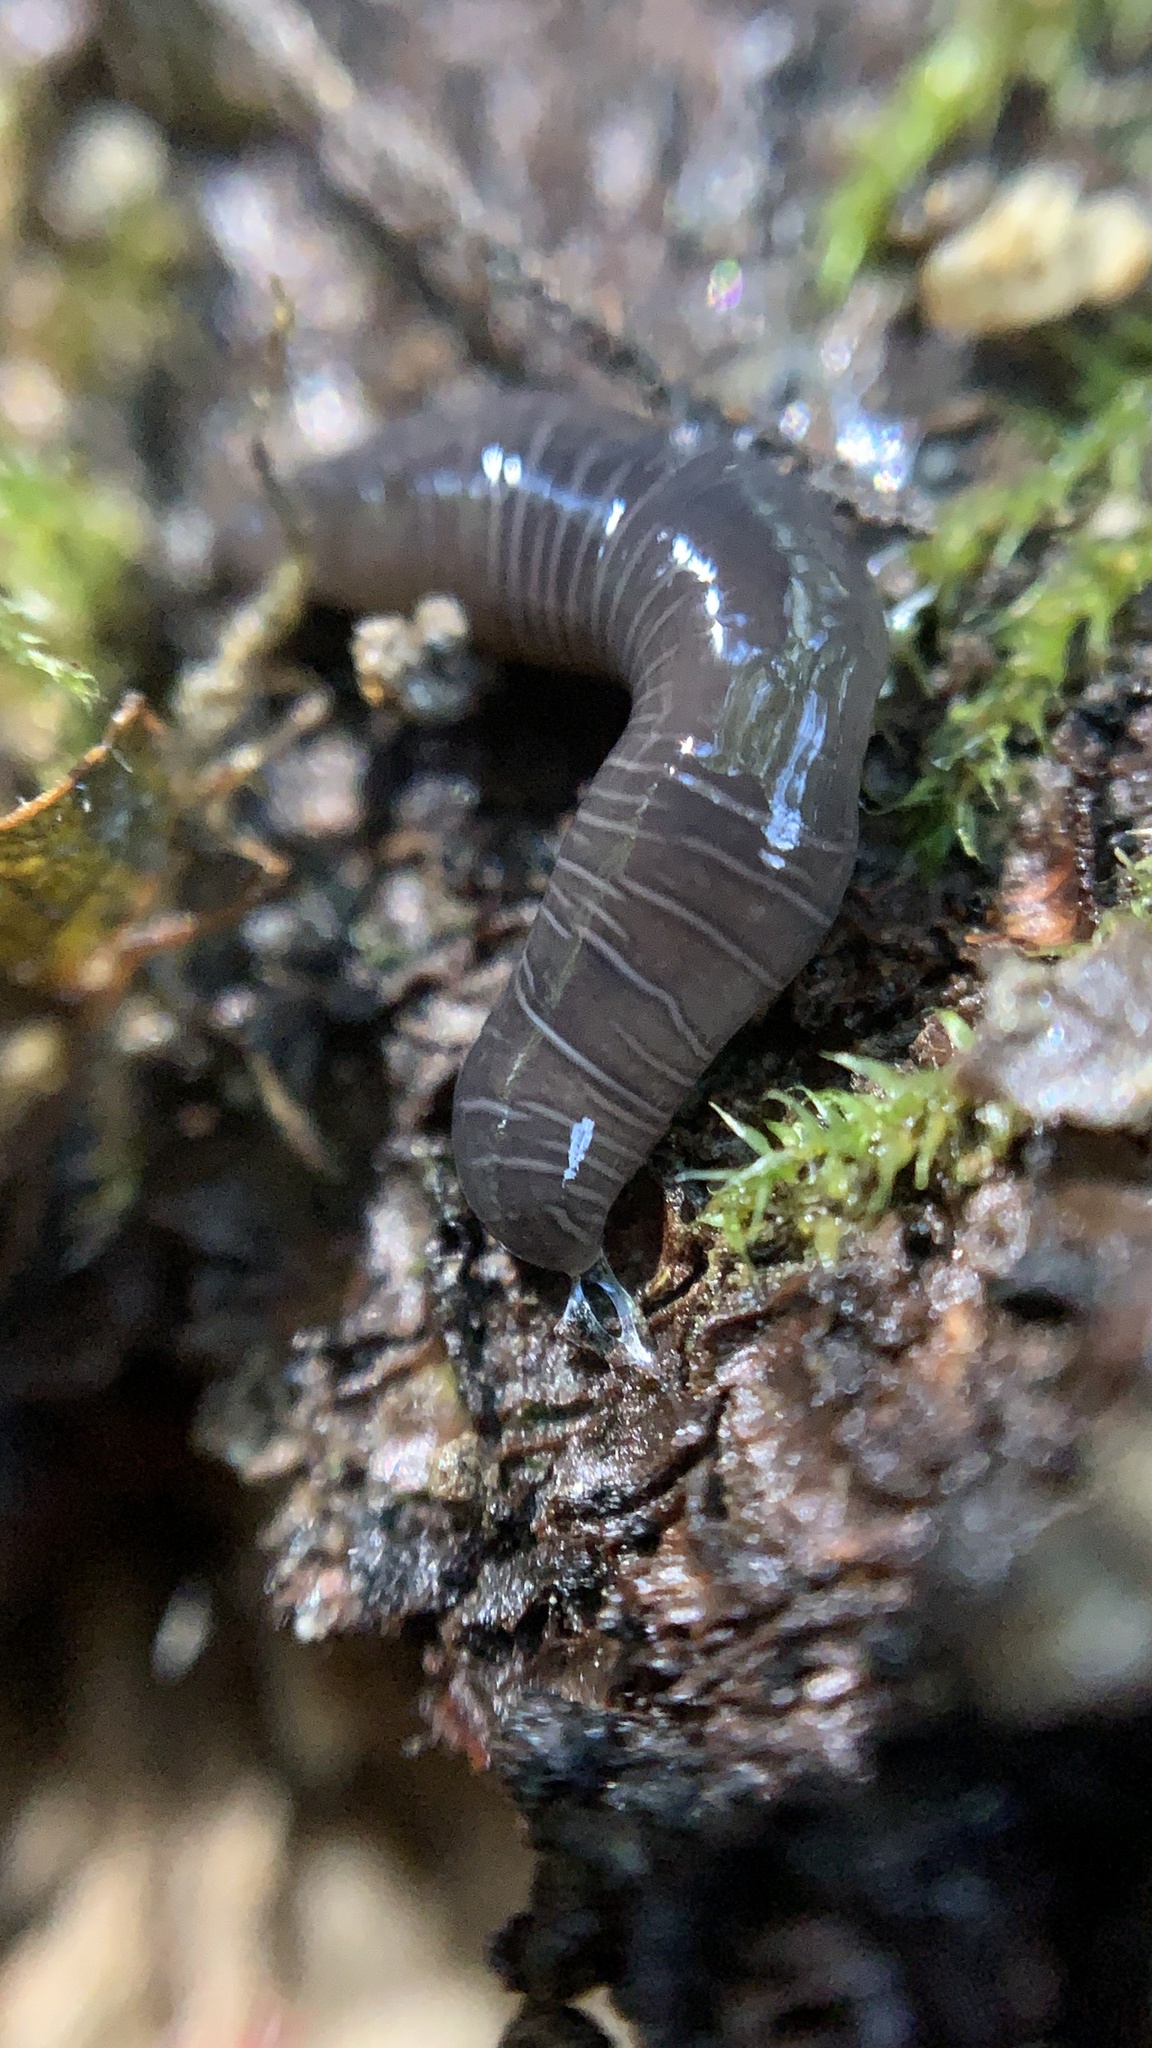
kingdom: Animalia
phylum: Platyhelminthes
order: Tricladida
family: Geoplanidae
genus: Microplana
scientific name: Microplana terrestris
